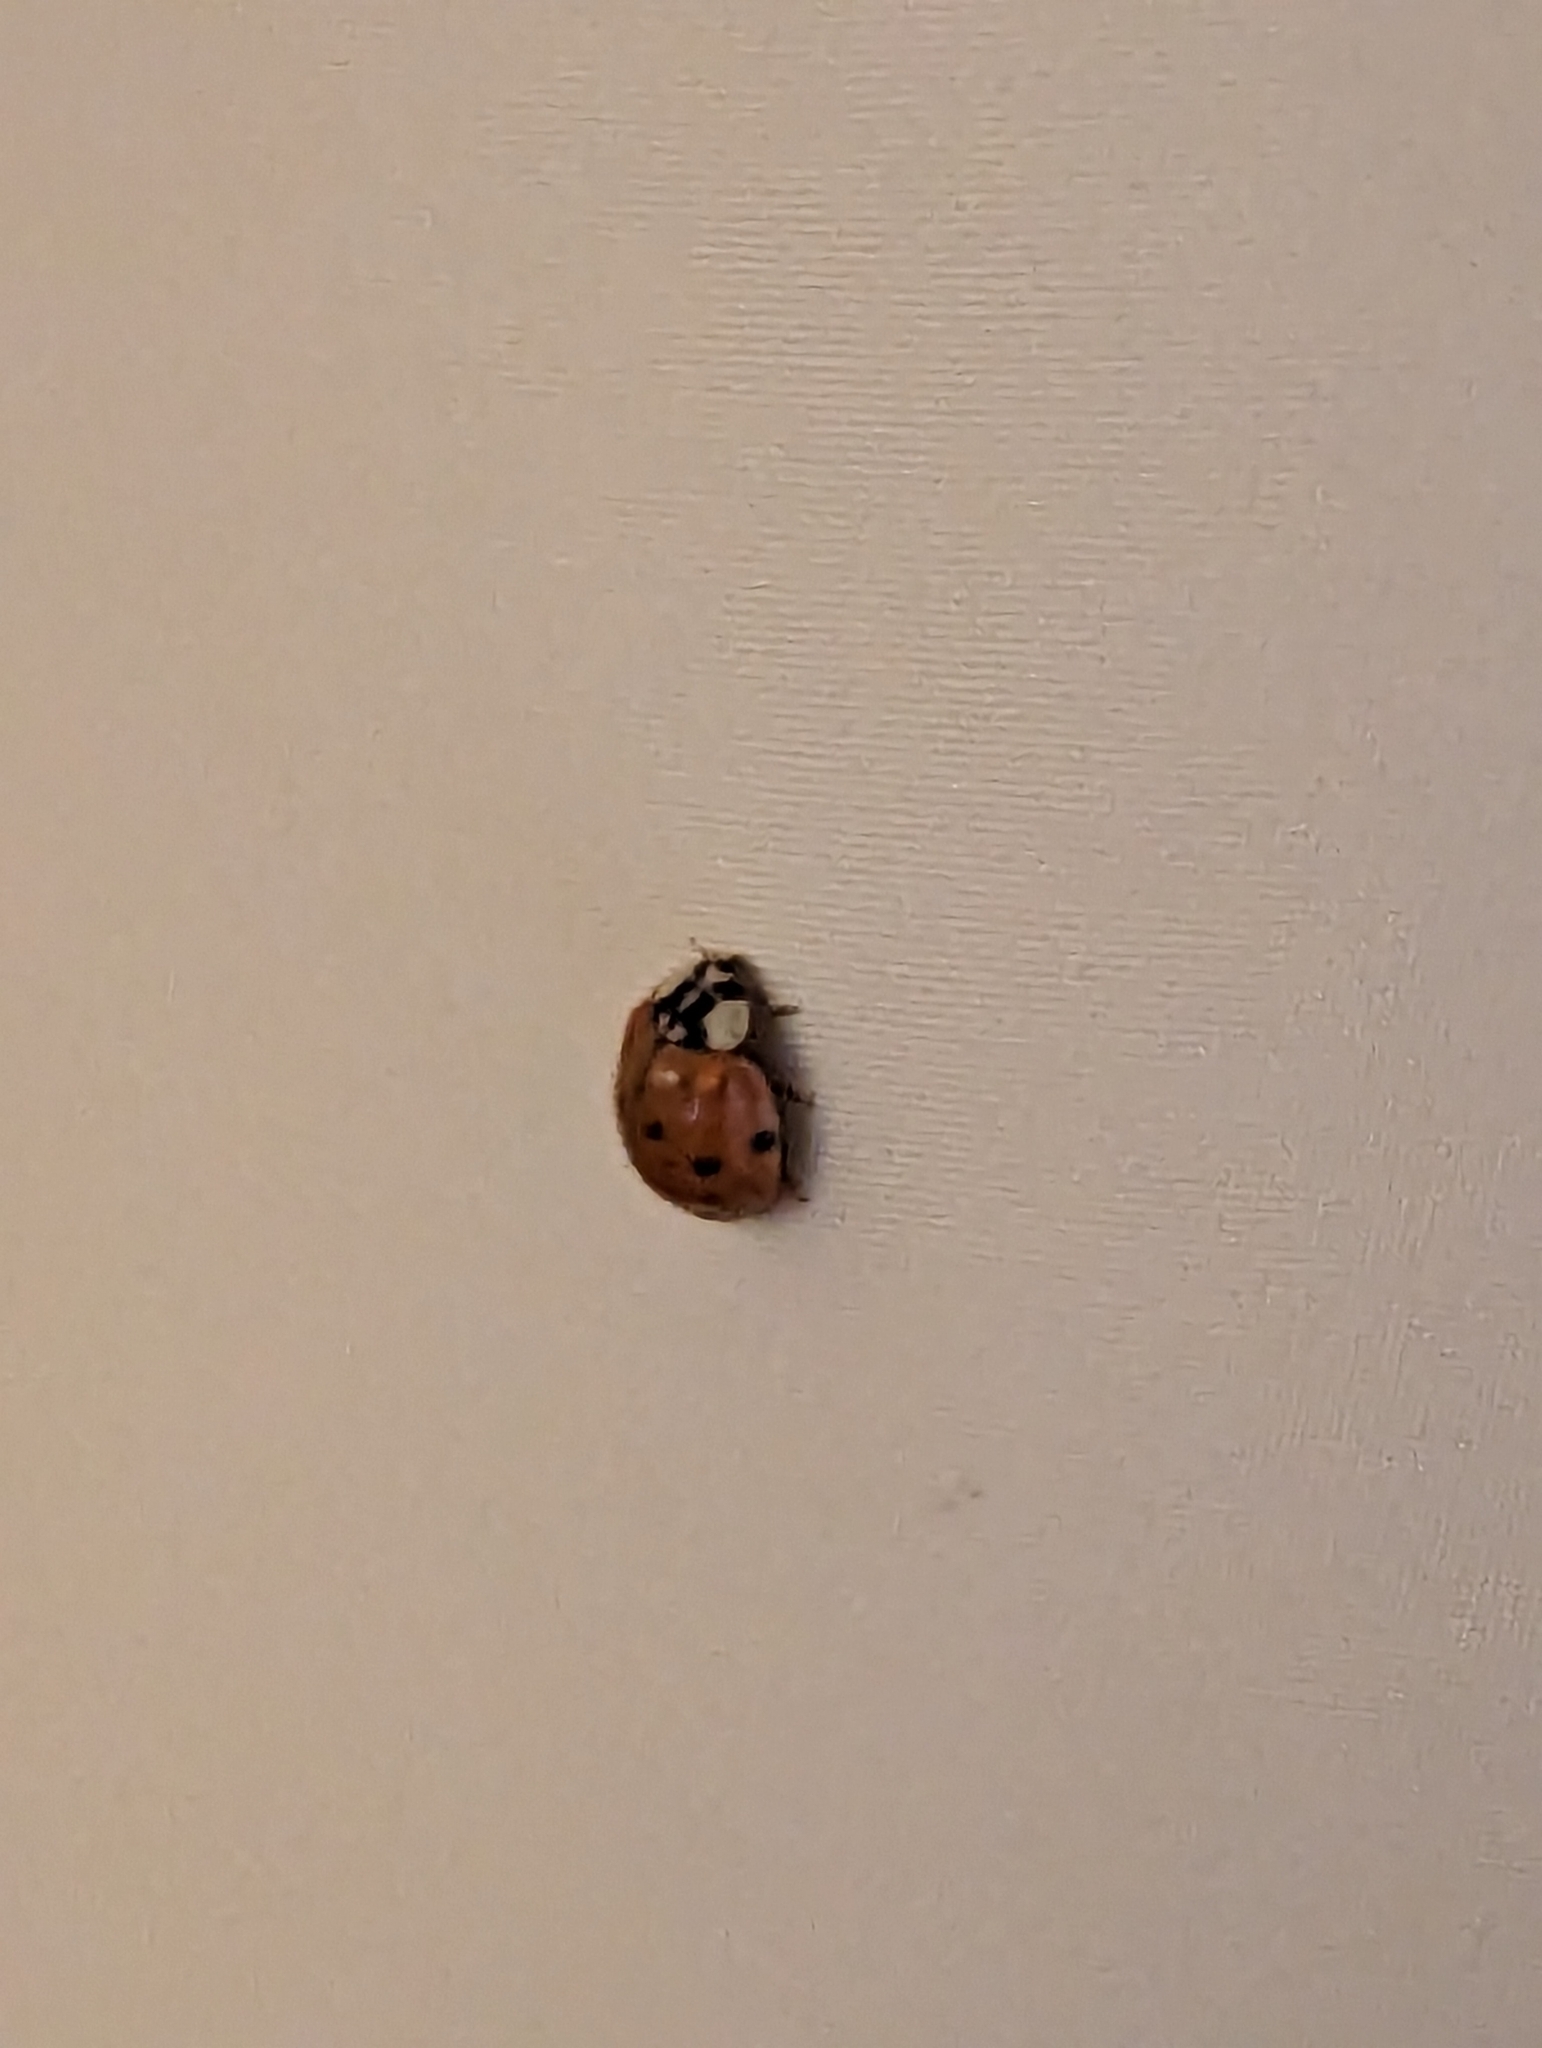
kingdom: Animalia
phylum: Arthropoda
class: Insecta
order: Coleoptera
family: Coccinellidae
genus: Harmonia
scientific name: Harmonia axyridis
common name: Harlequin ladybird
